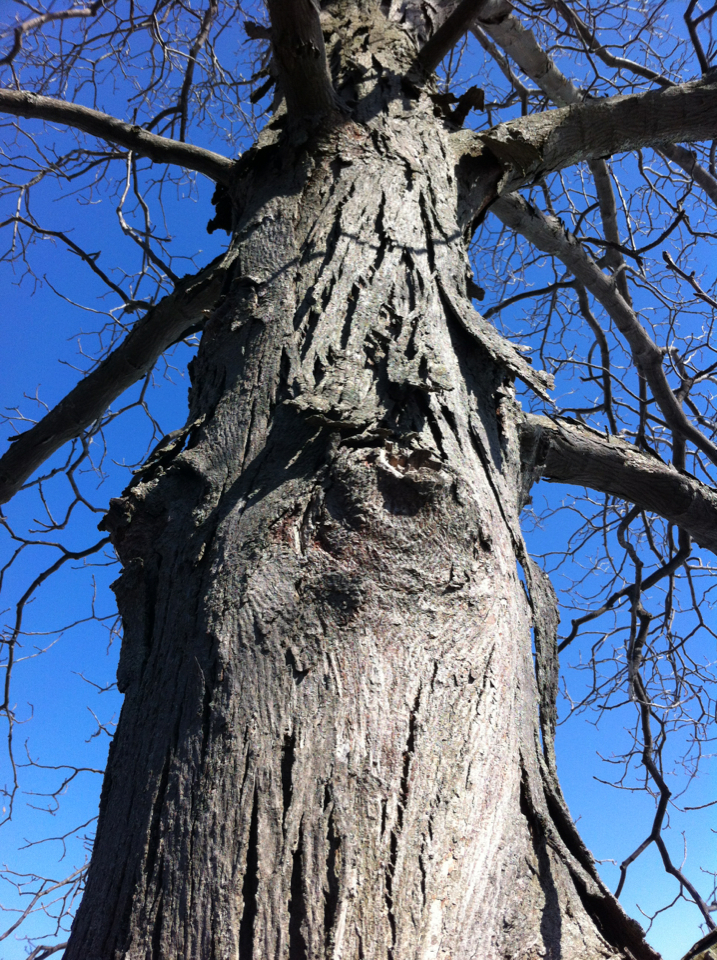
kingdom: Plantae
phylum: Tracheophyta
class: Magnoliopsida
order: Fagales
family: Juglandaceae
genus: Carya
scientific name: Carya ovata
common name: Shagbark hickory
